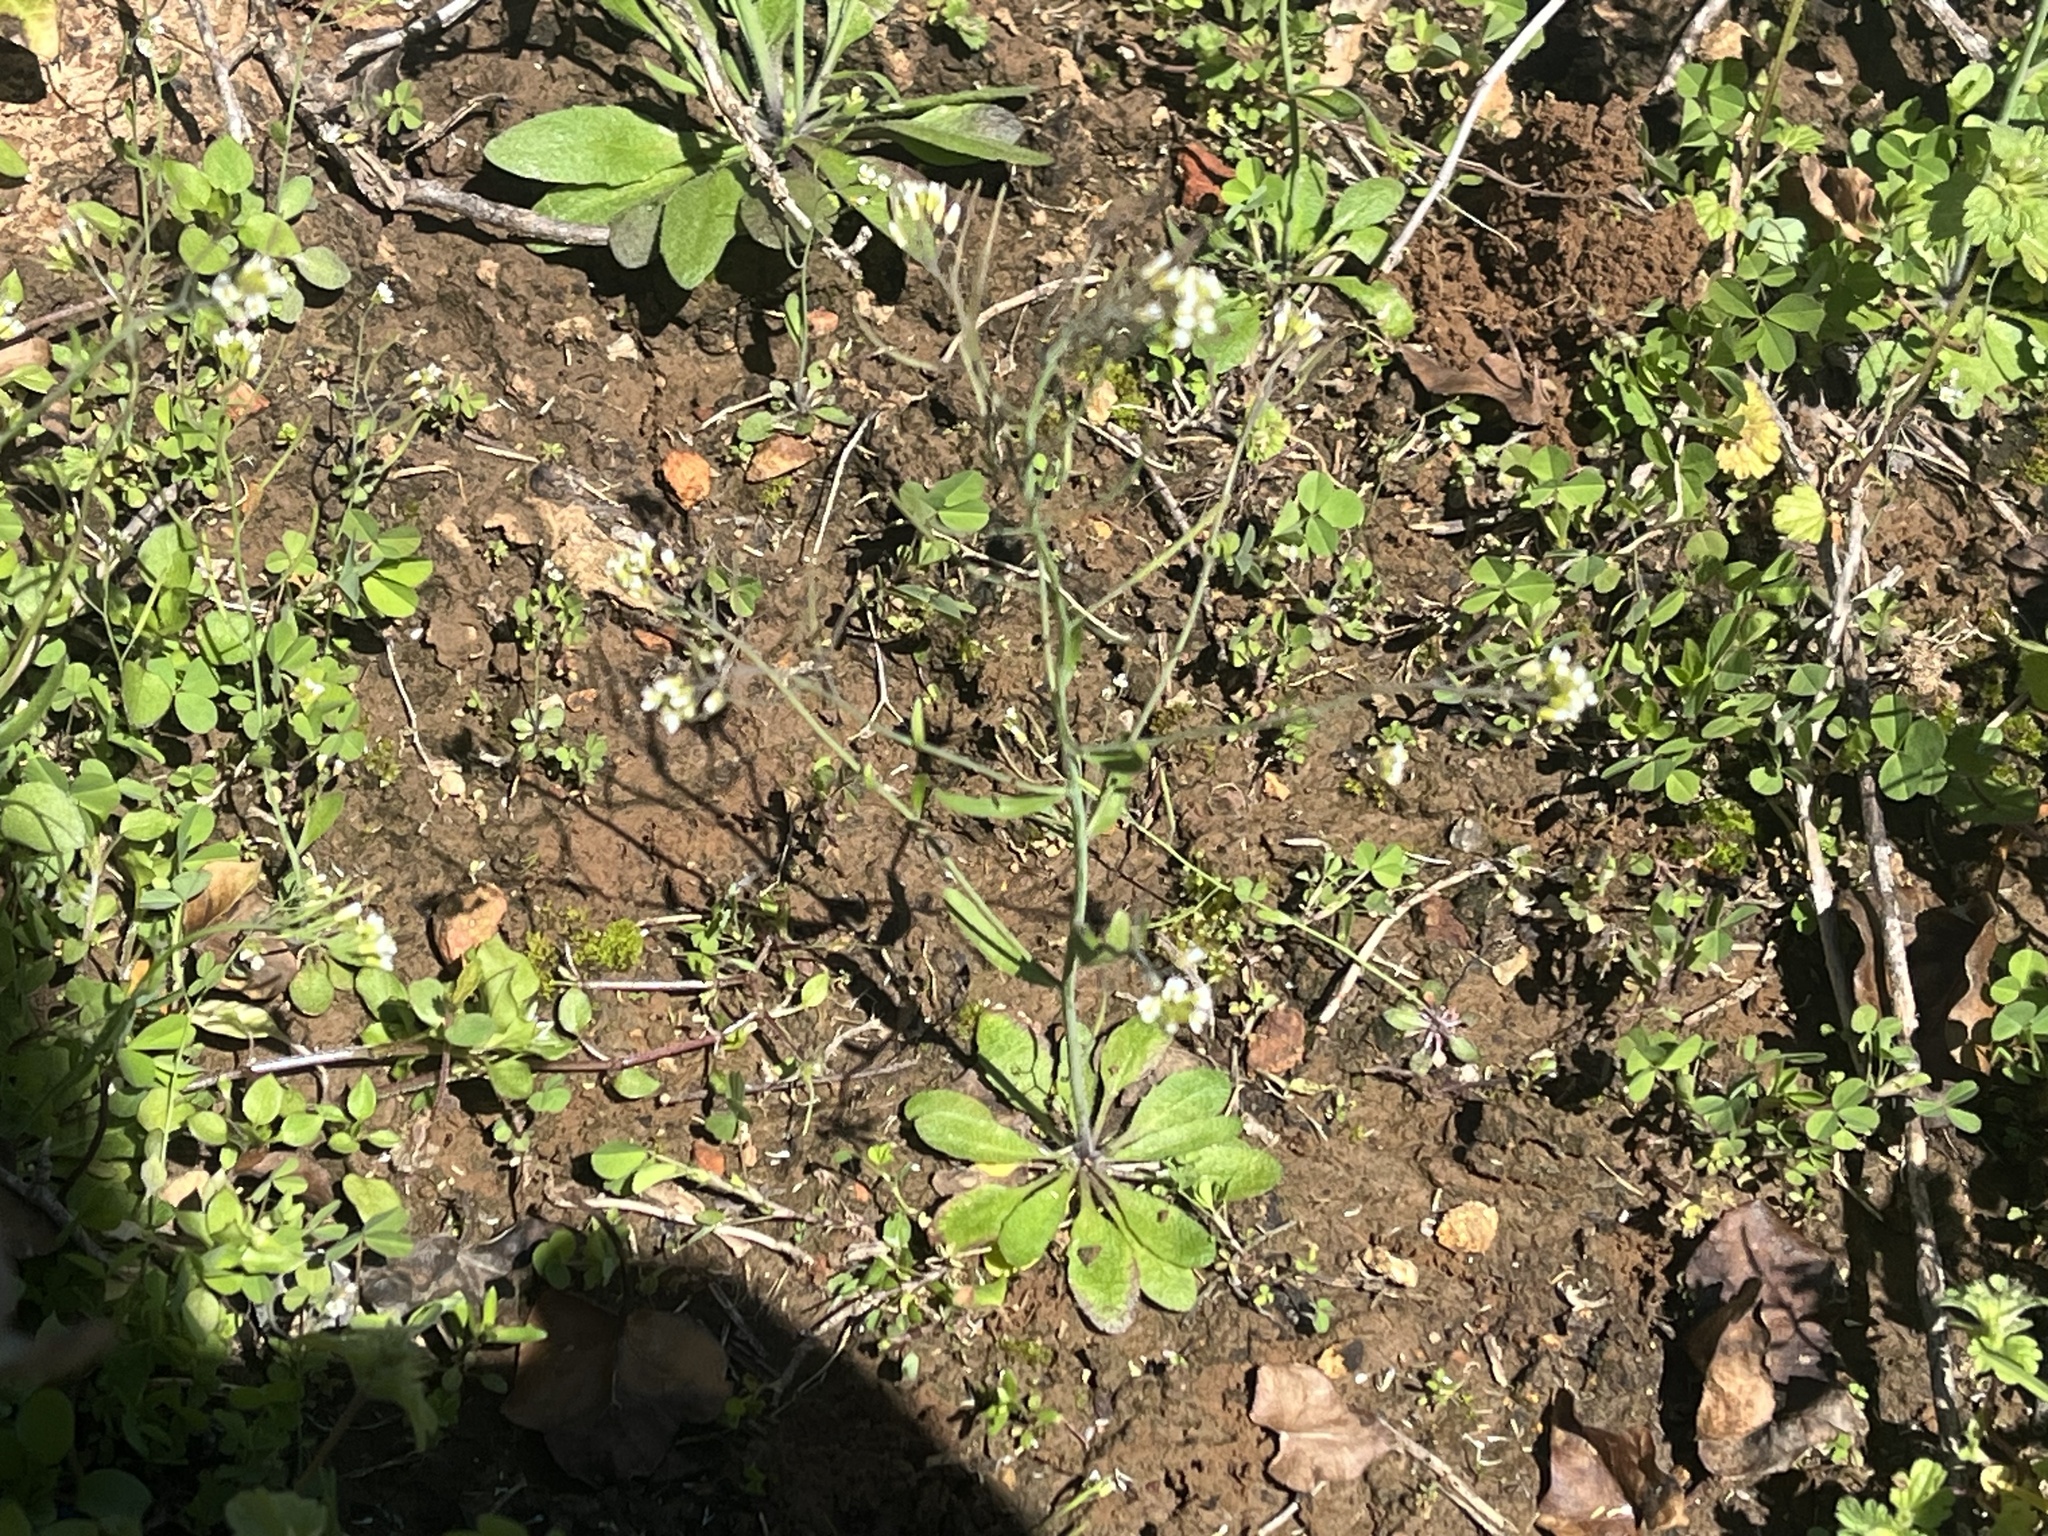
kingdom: Plantae
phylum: Tracheophyta
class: Magnoliopsida
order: Brassicales
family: Brassicaceae
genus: Arabidopsis
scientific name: Arabidopsis thaliana
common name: Thale cress
